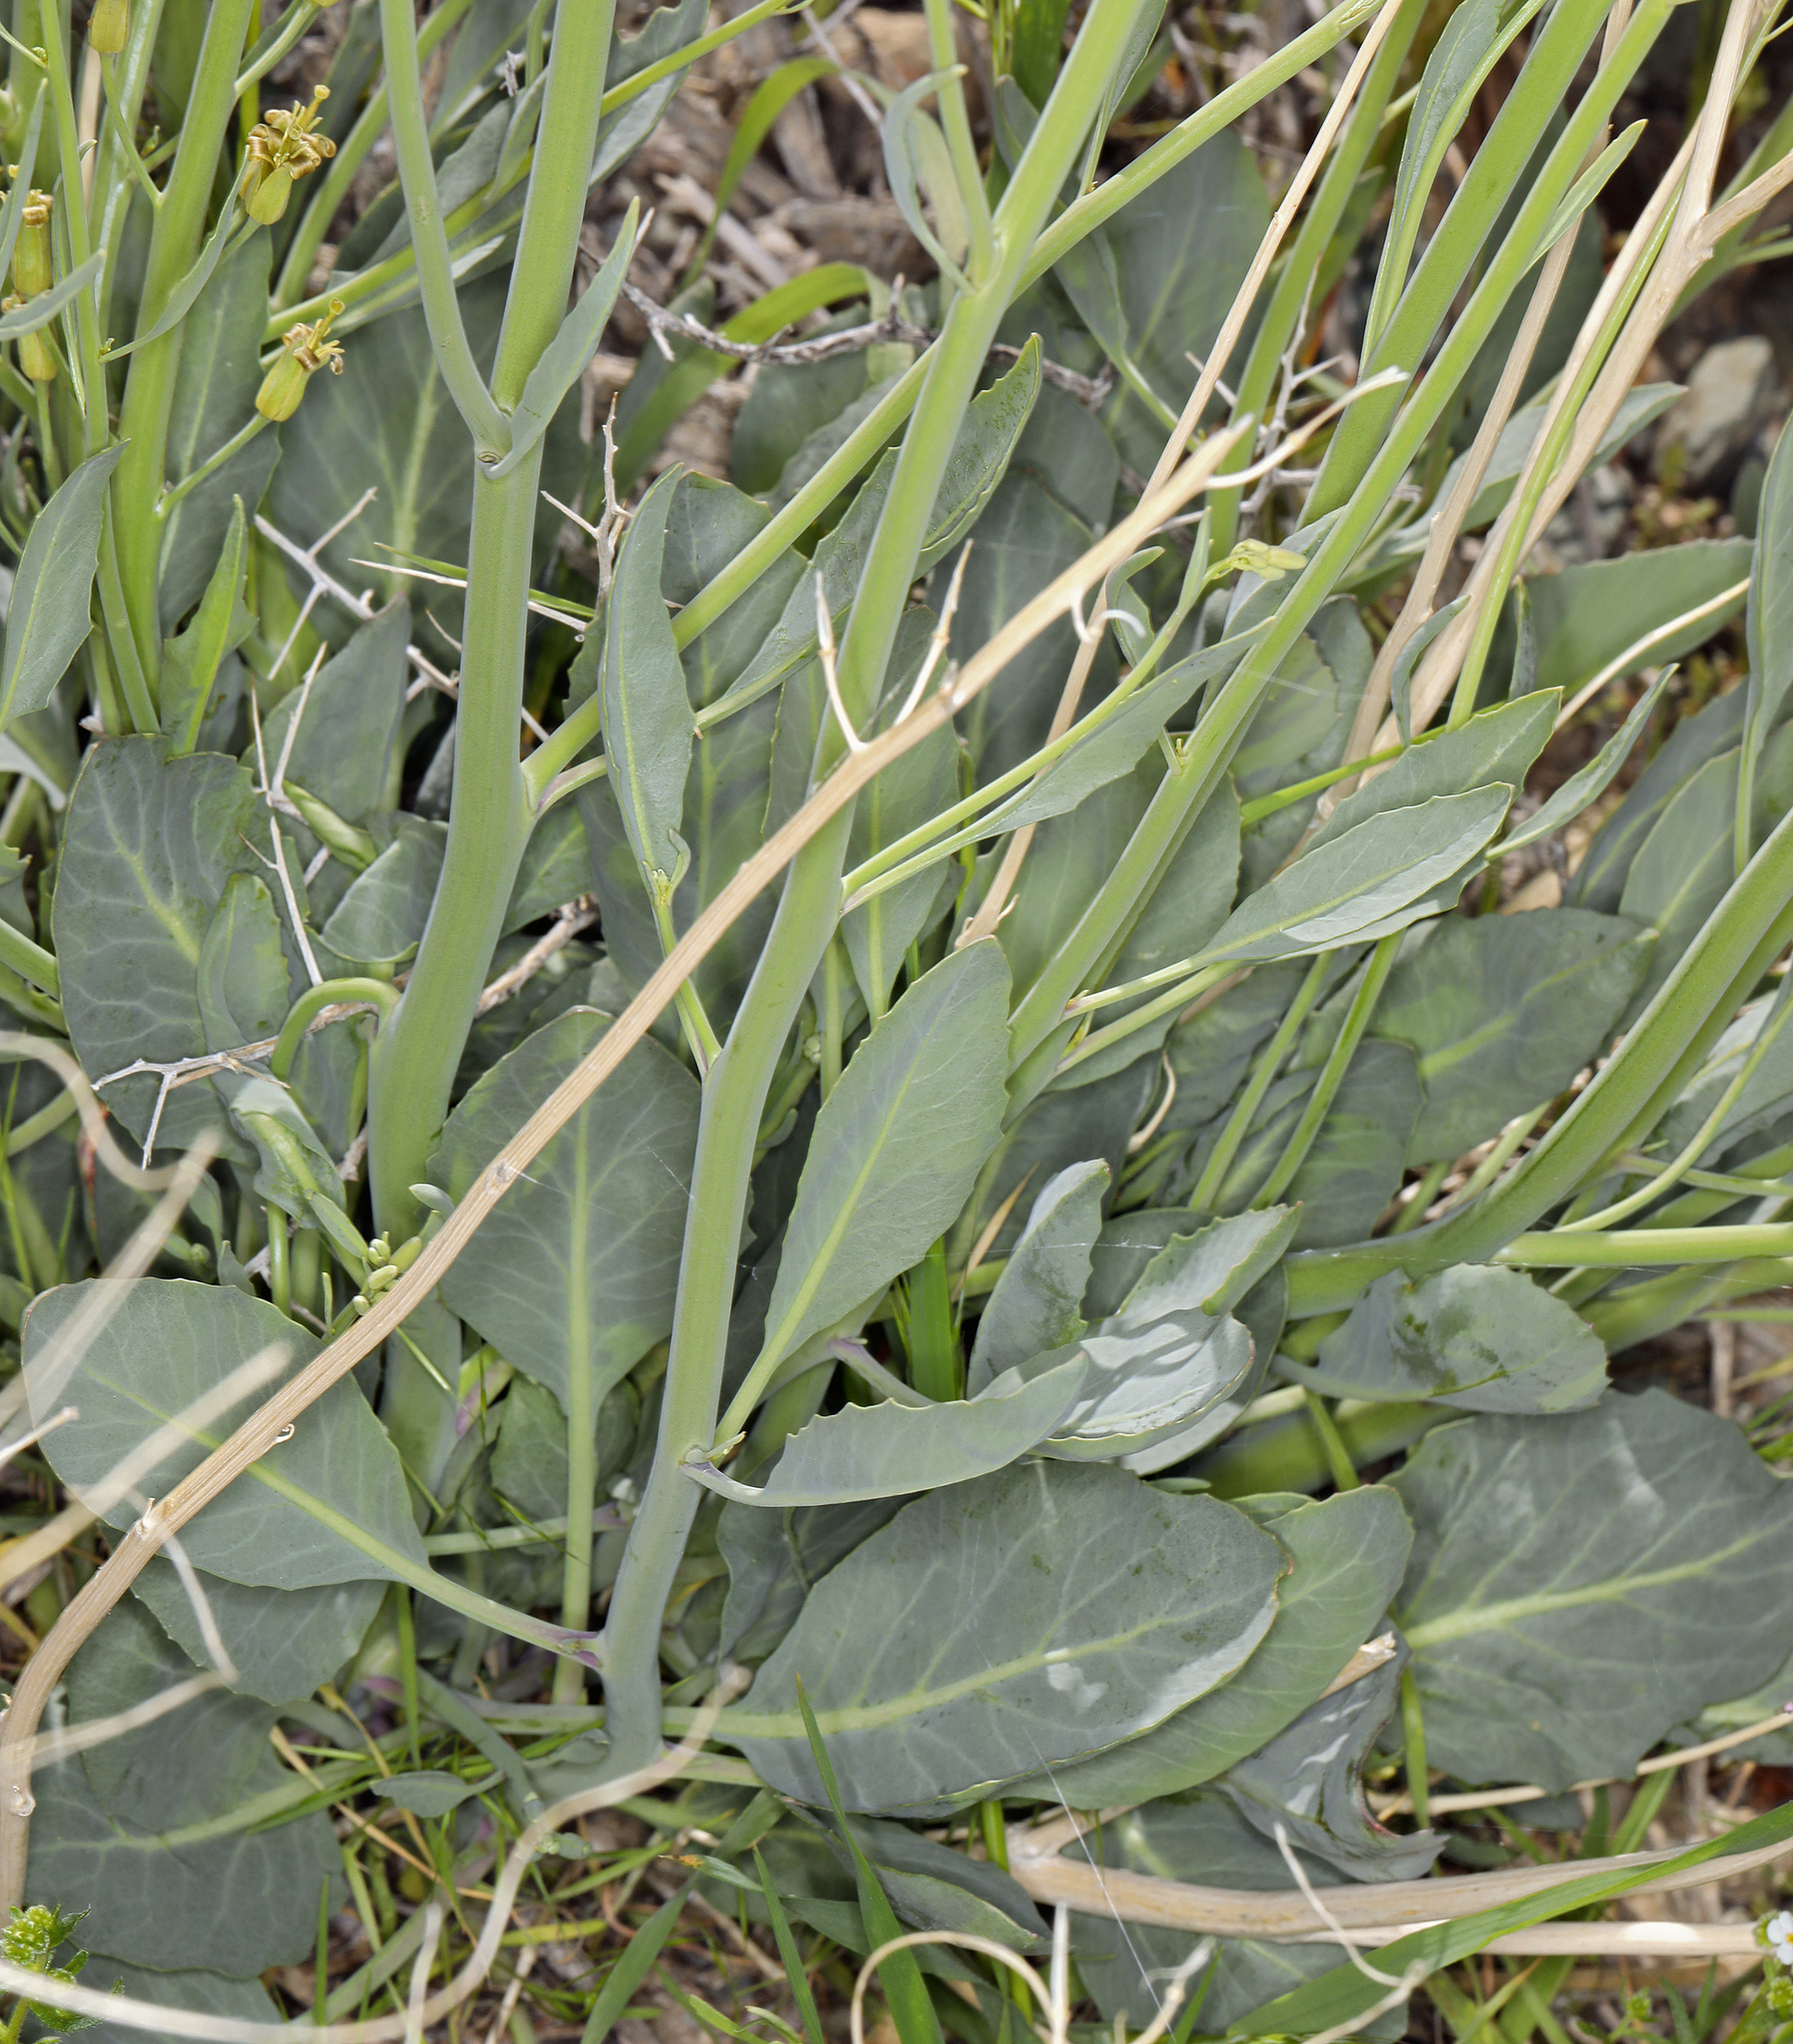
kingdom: Plantae
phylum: Tracheophyta
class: Magnoliopsida
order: Brassicales
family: Brassicaceae
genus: Streptanthus
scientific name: Streptanthus glaucus
